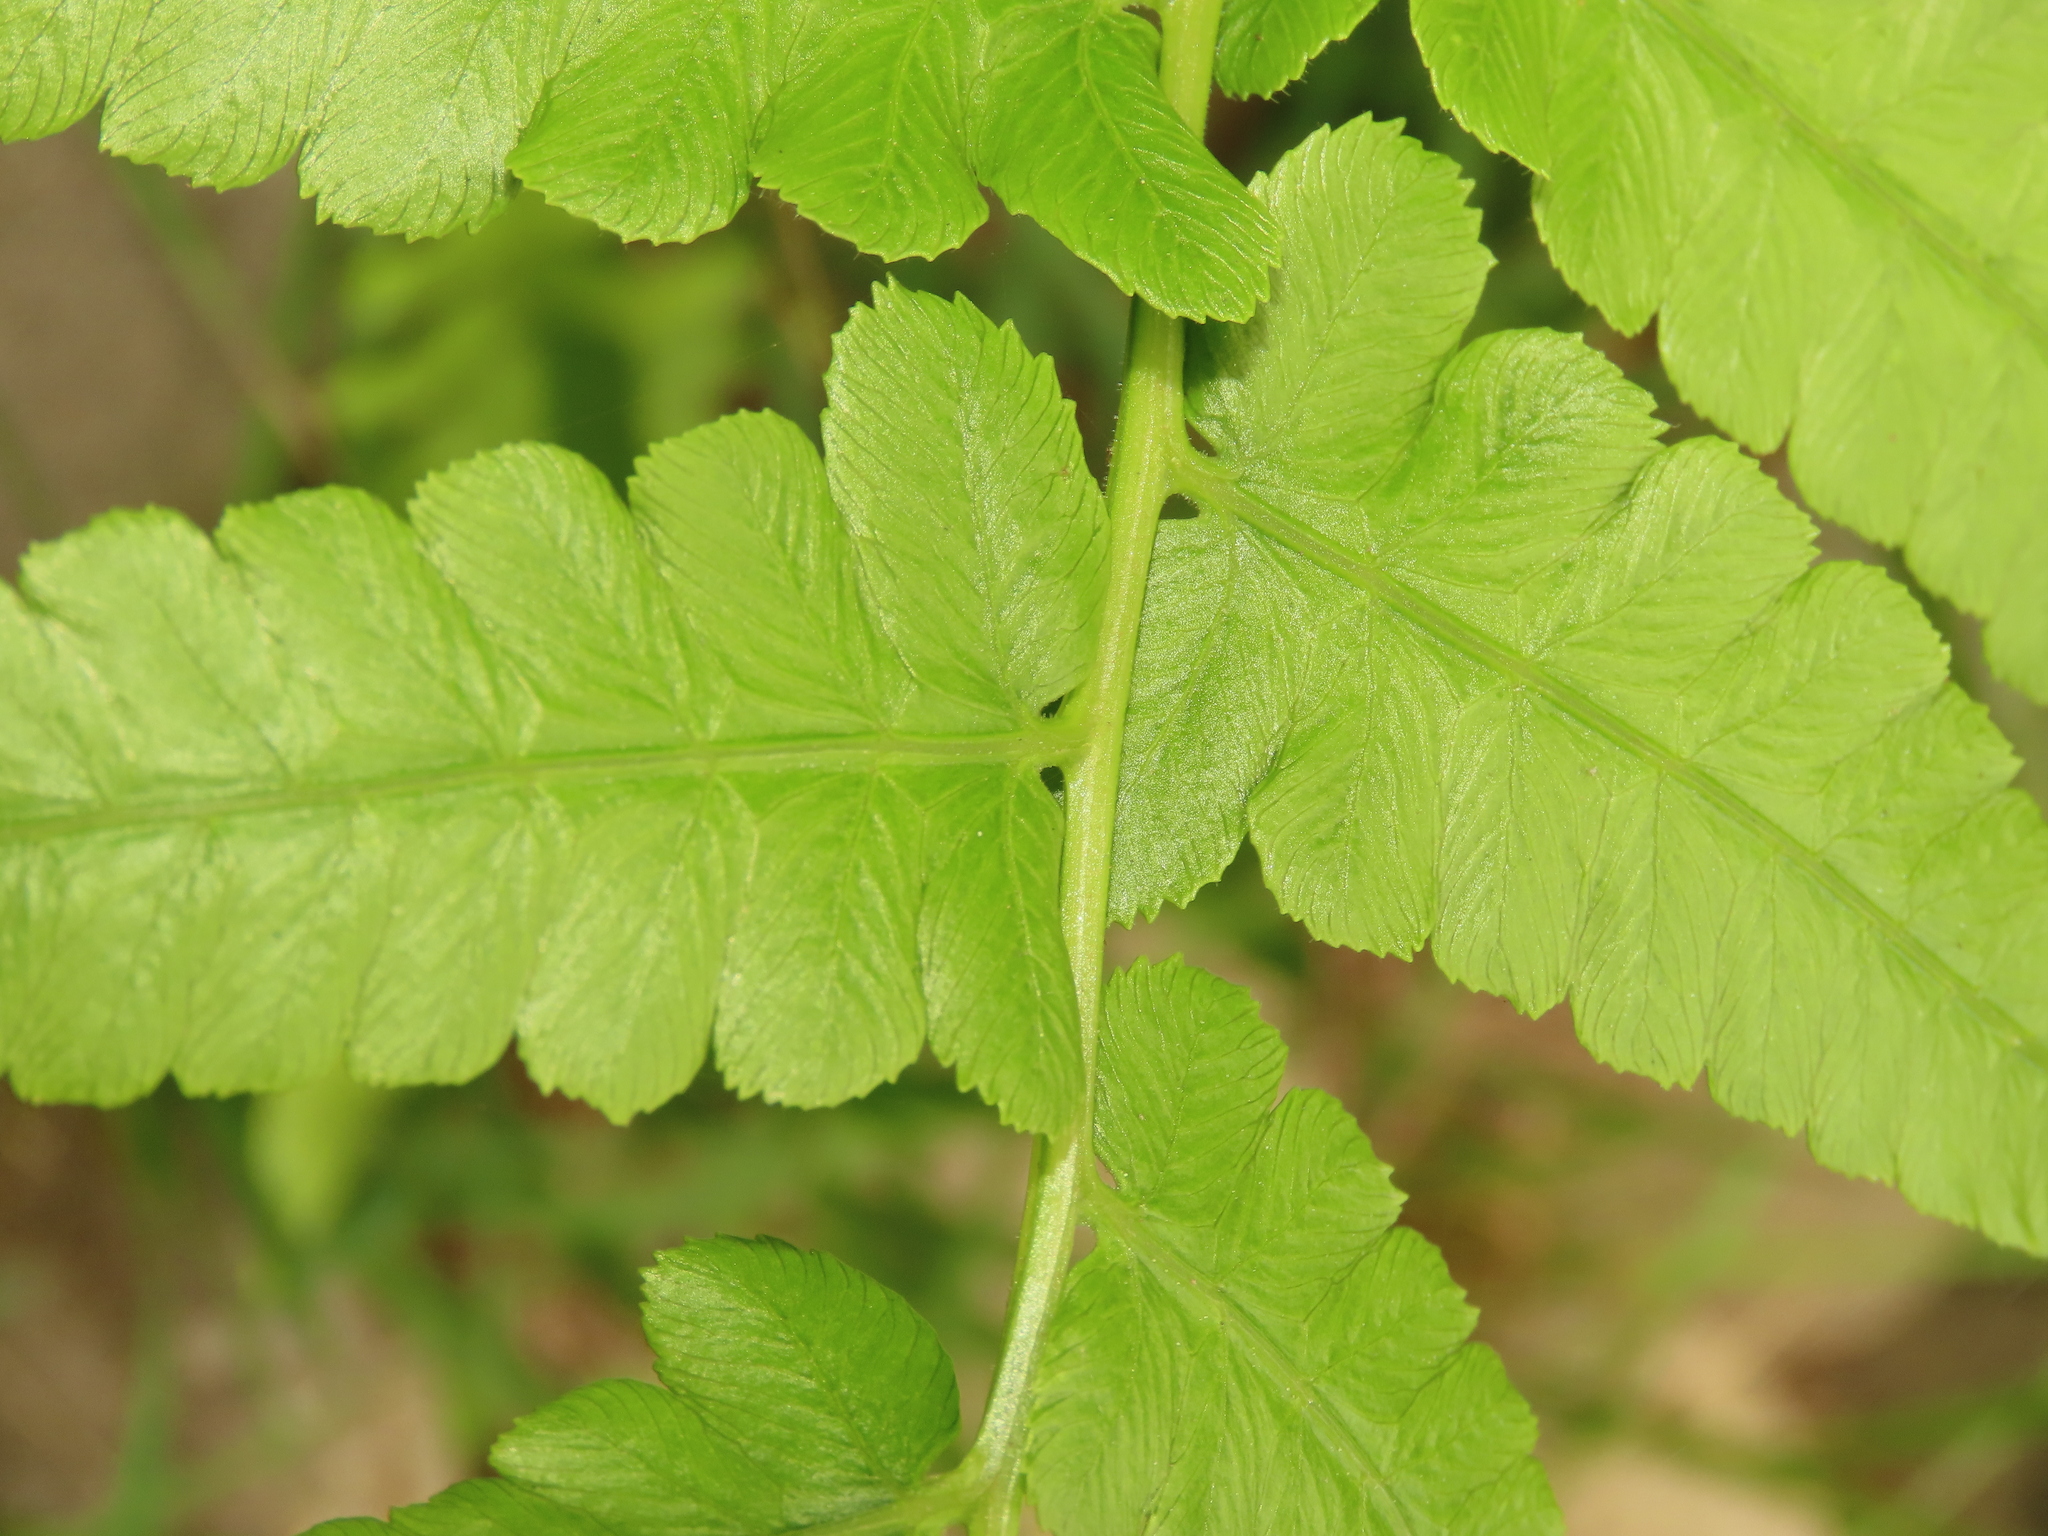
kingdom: Plantae
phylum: Tracheophyta
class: Polypodiopsida
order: Polypodiales
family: Athyriaceae
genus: Diplazium
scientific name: Diplazium esculentum
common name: Vegetable fern
